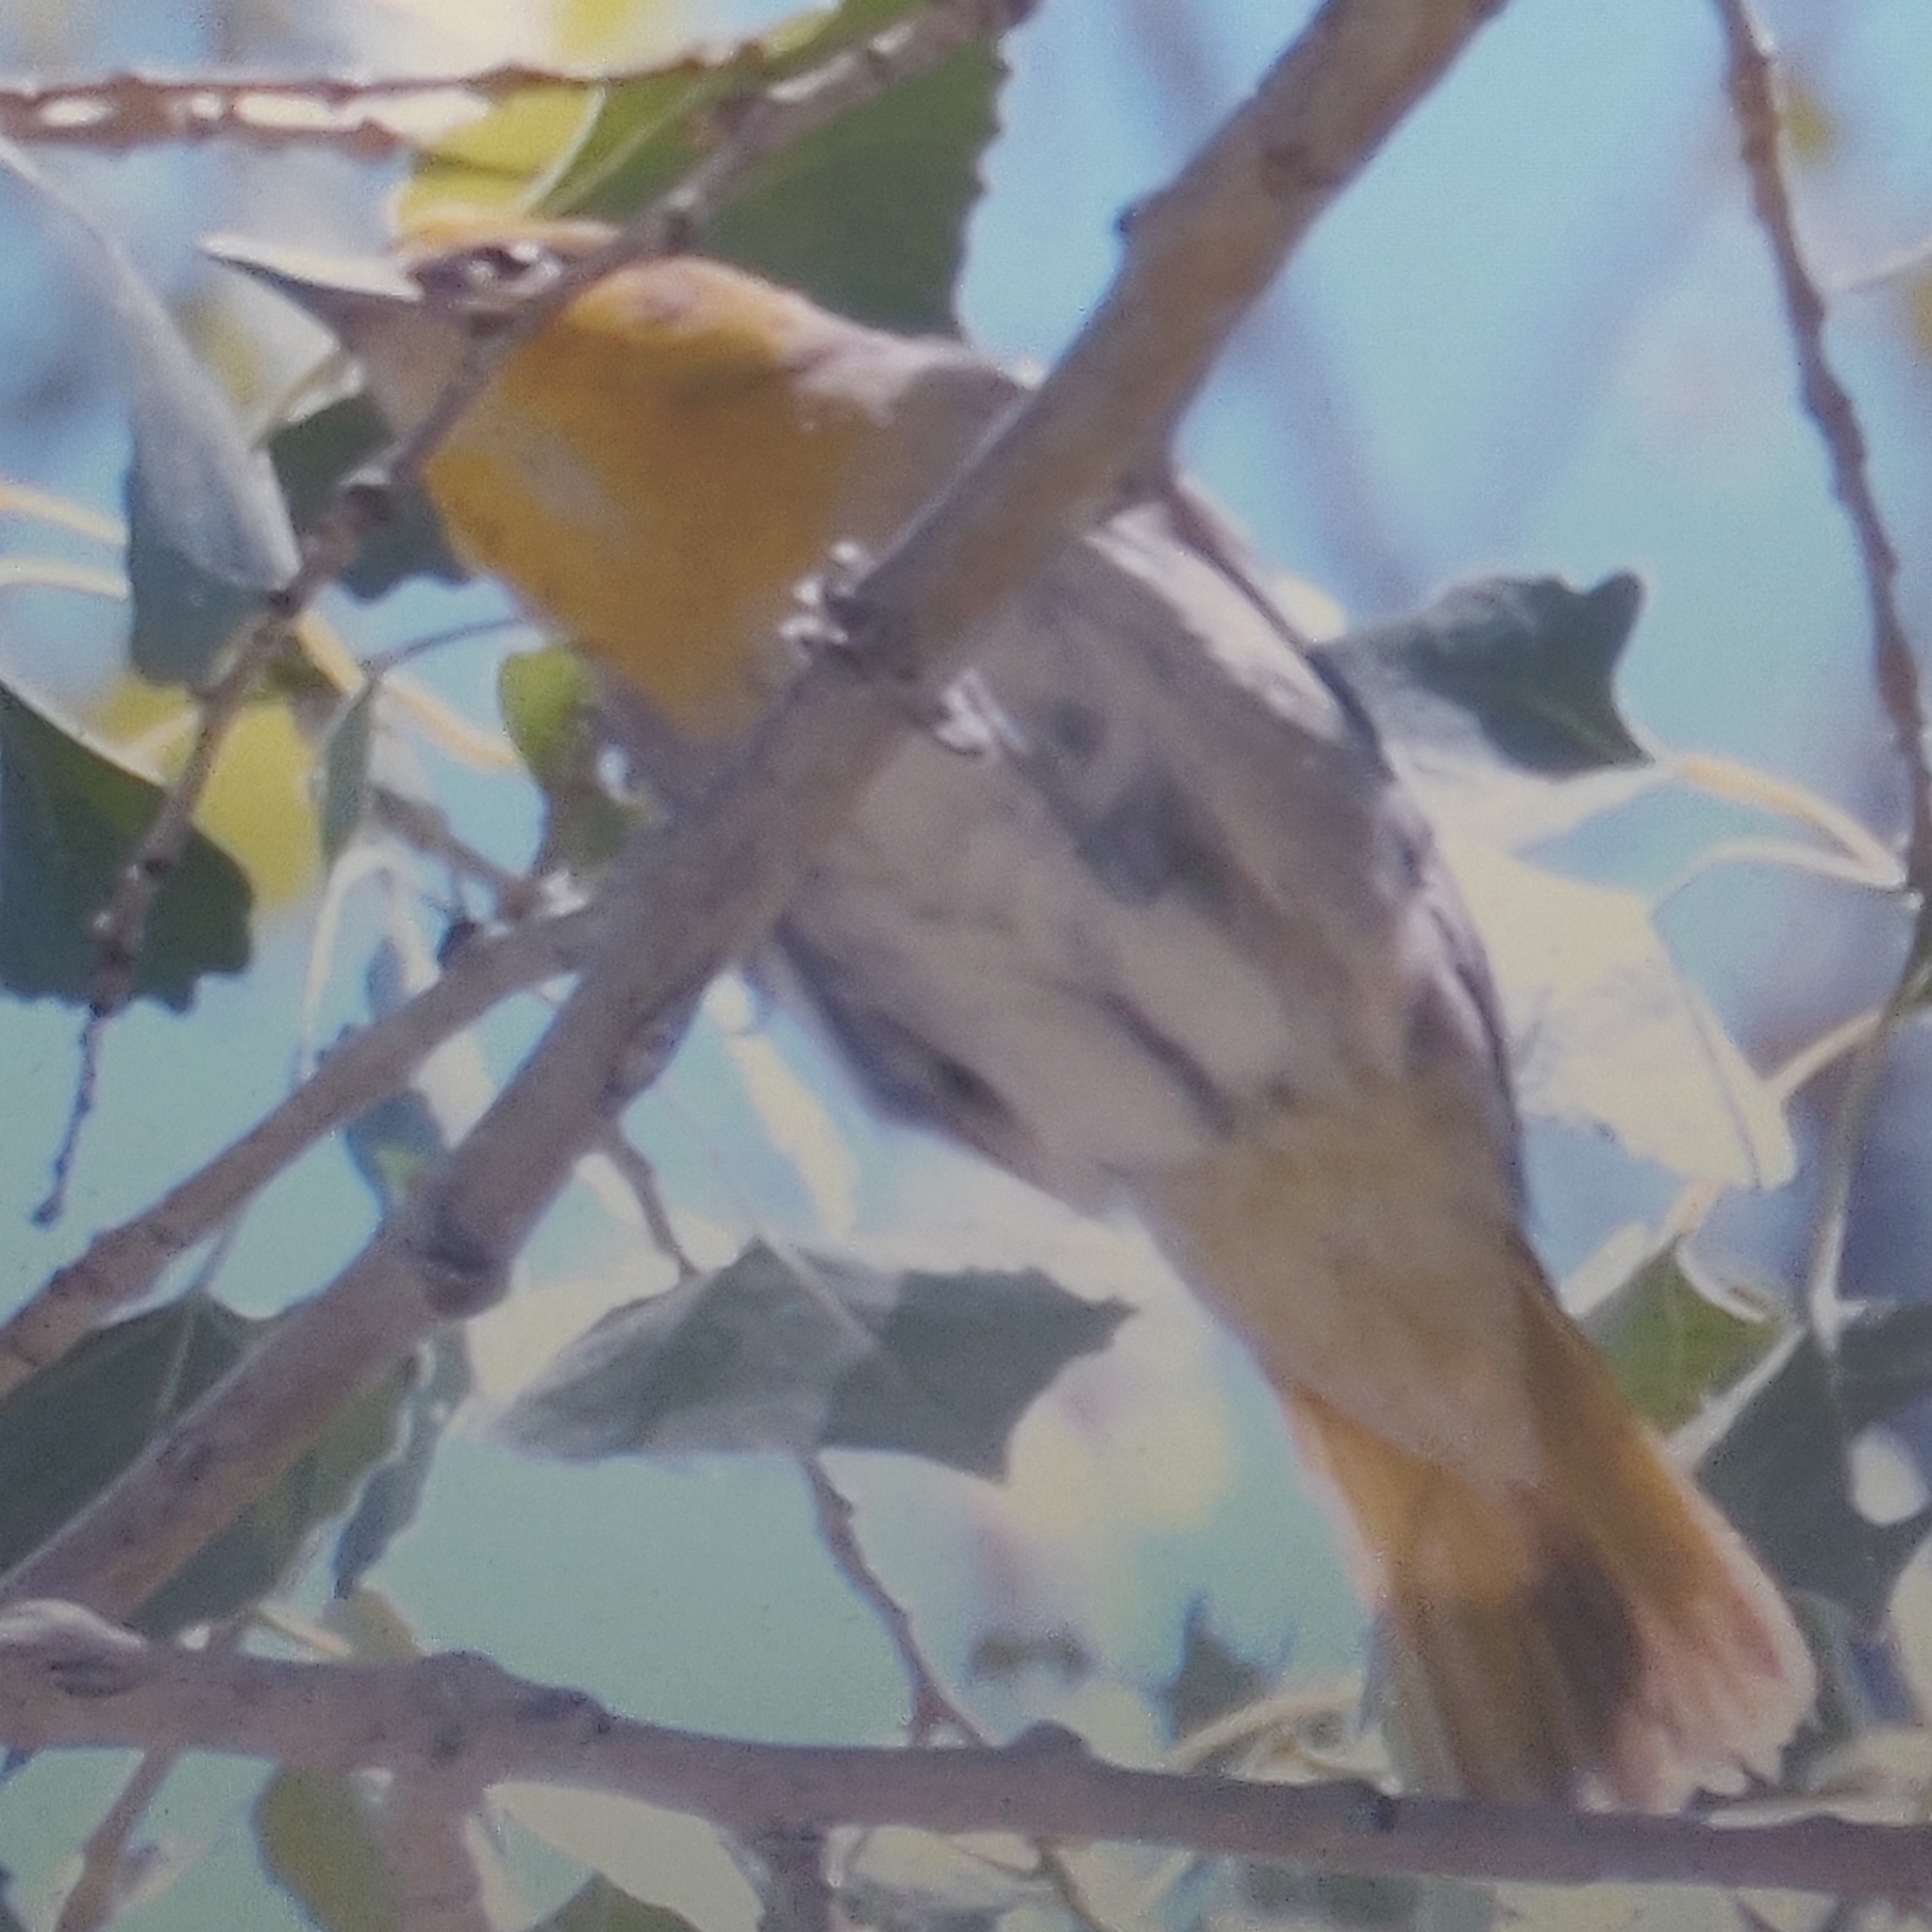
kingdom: Animalia
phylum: Chordata
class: Aves
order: Passeriformes
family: Icteridae
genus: Icterus
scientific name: Icterus bullockii
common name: Bullock's oriole
